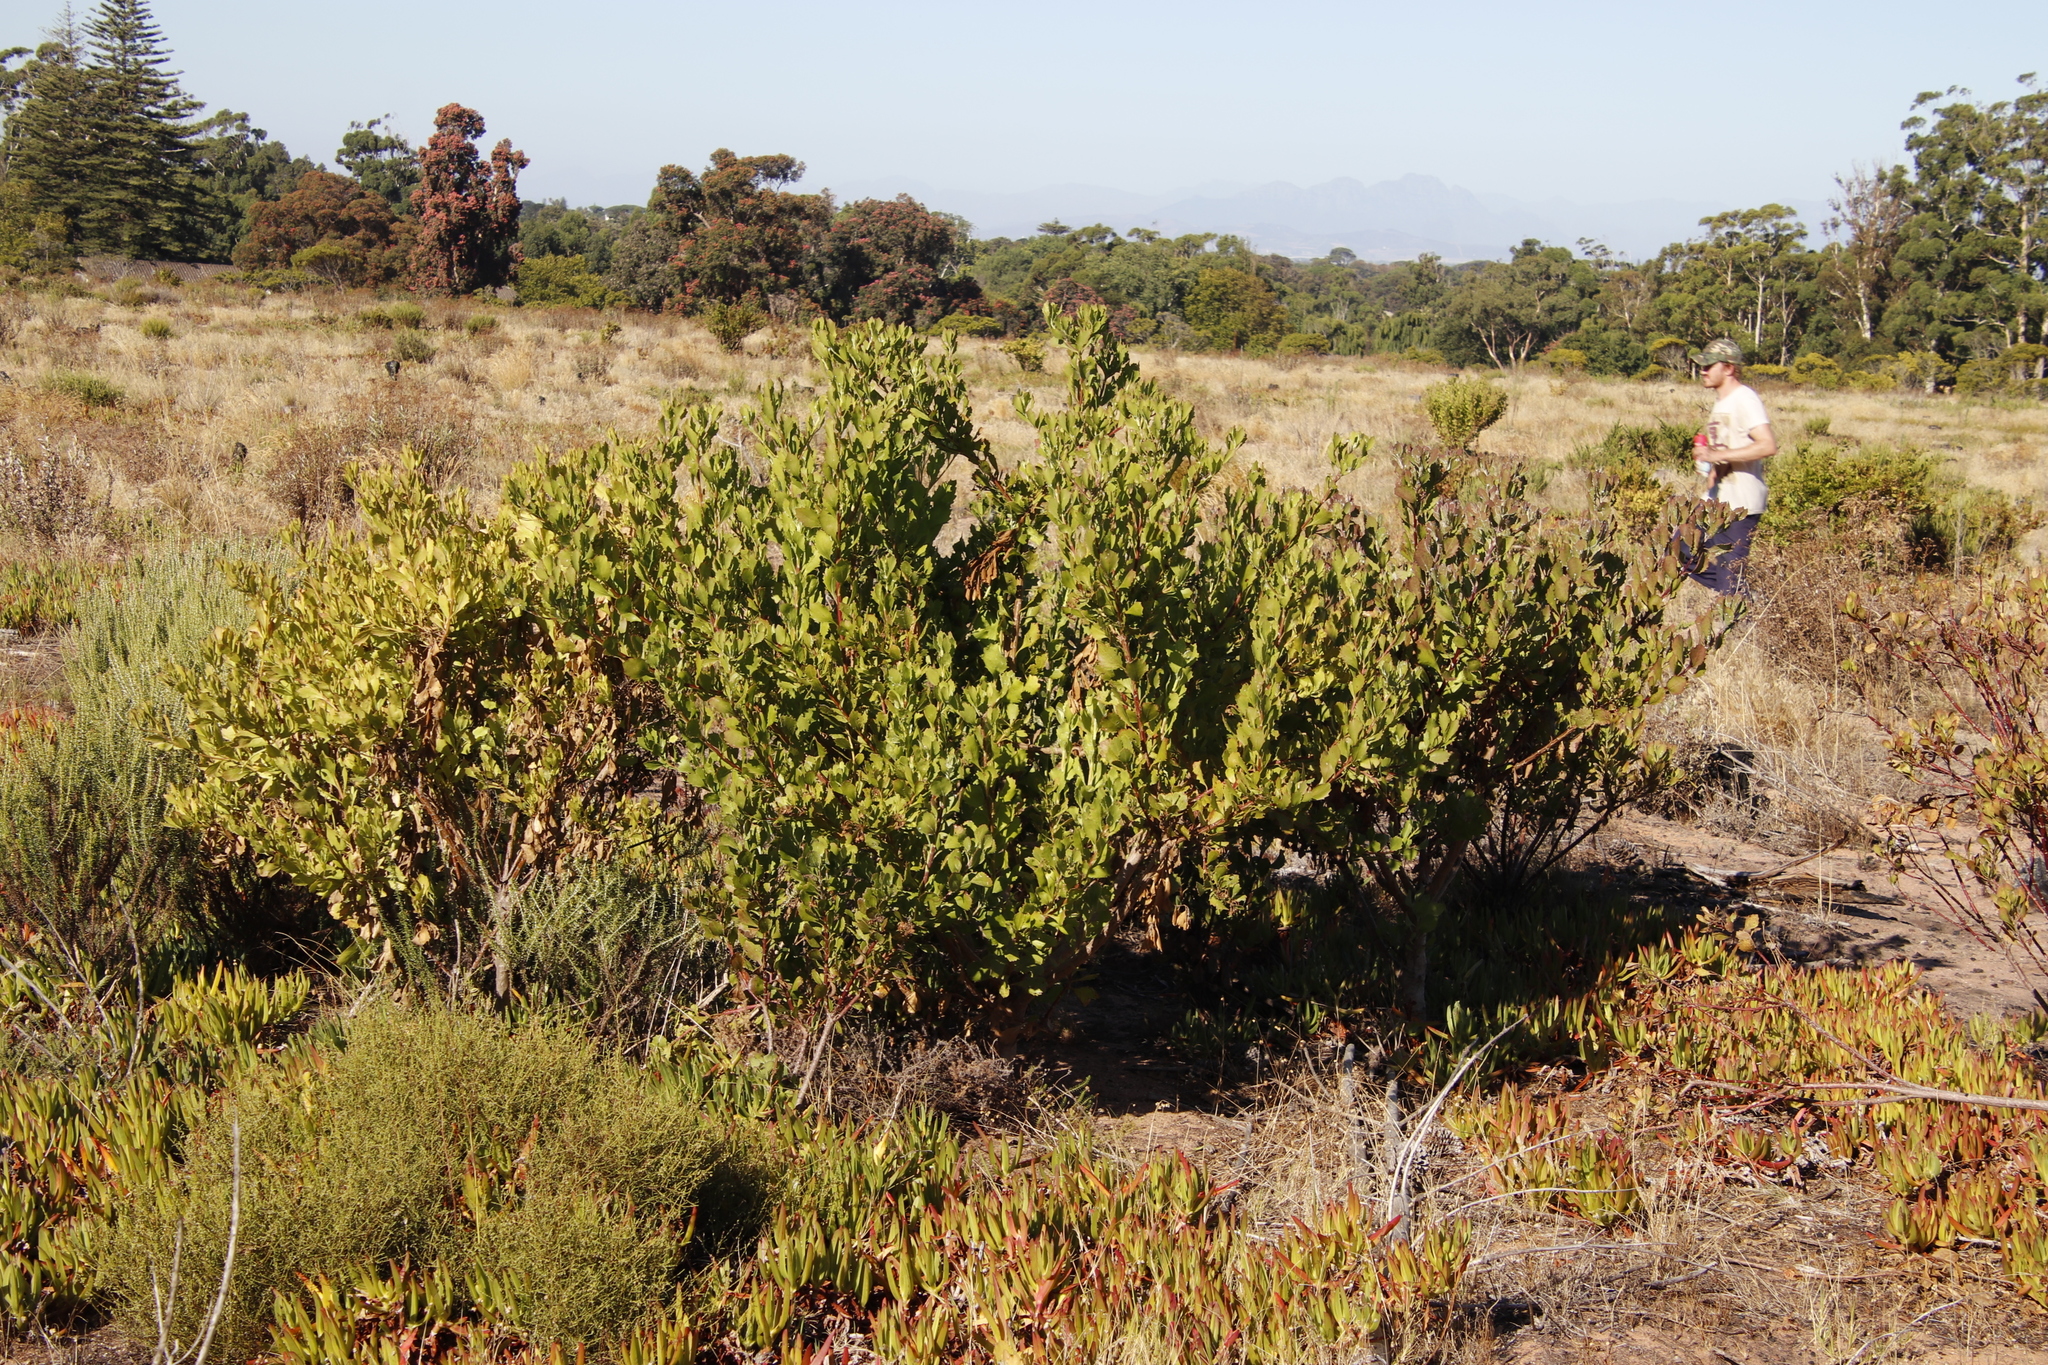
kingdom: Plantae
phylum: Tracheophyta
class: Magnoliopsida
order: Asterales
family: Asteraceae
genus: Osteospermum
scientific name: Osteospermum moniliferum
